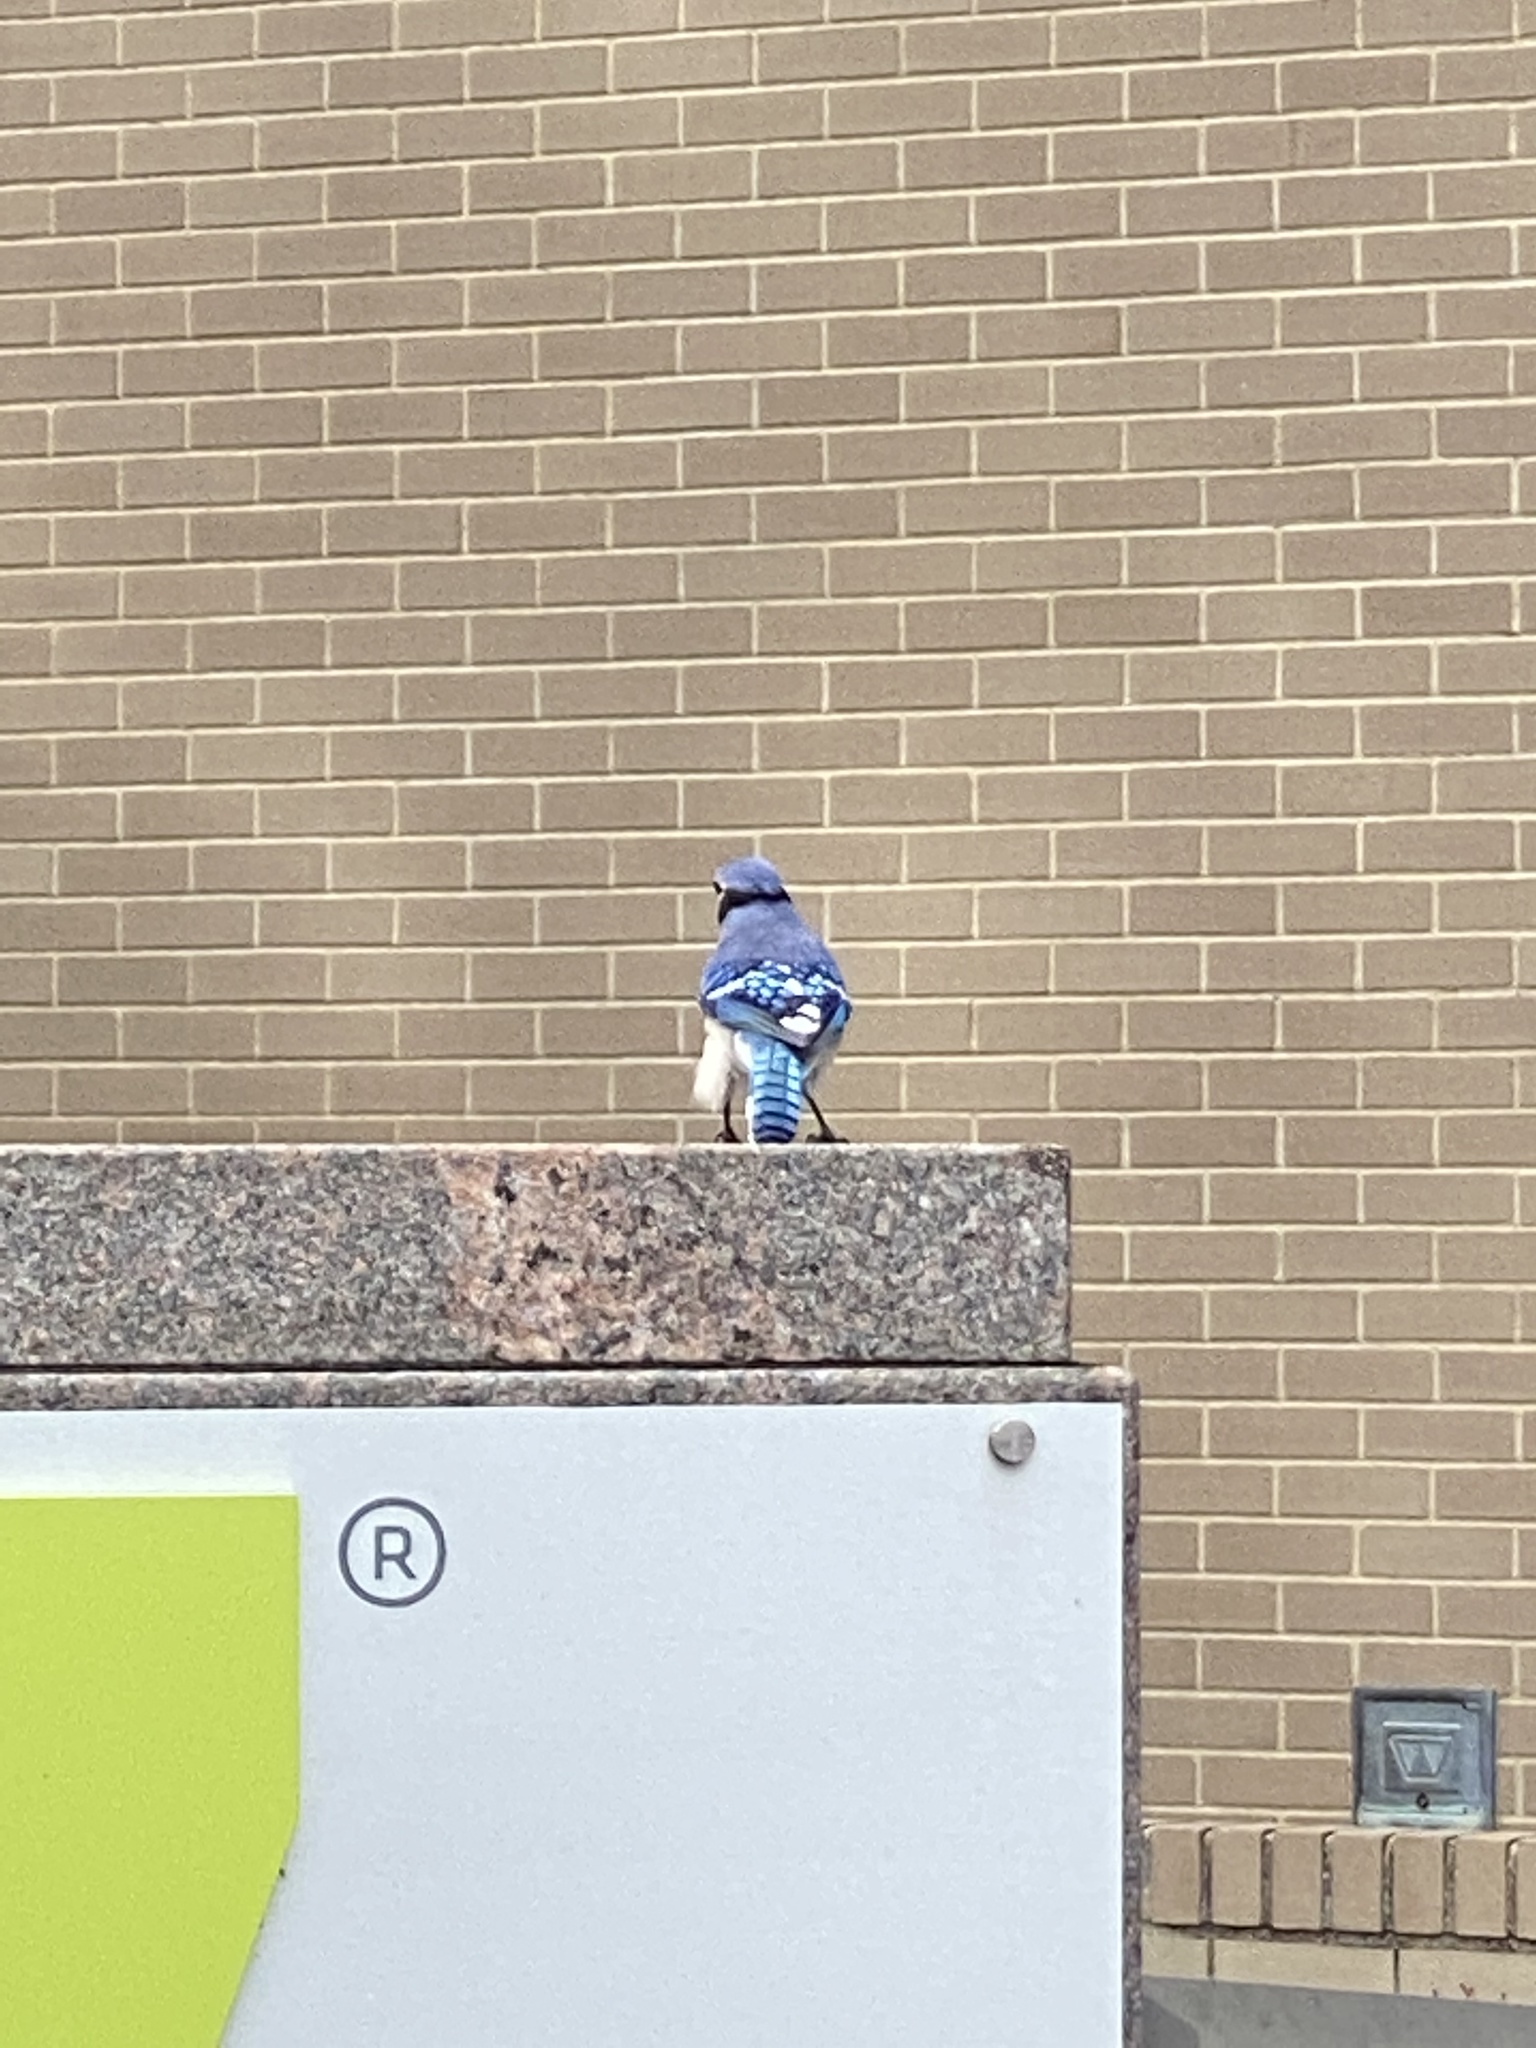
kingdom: Animalia
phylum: Chordata
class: Aves
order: Passeriformes
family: Corvidae
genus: Cyanocitta
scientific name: Cyanocitta cristata
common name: Blue jay
